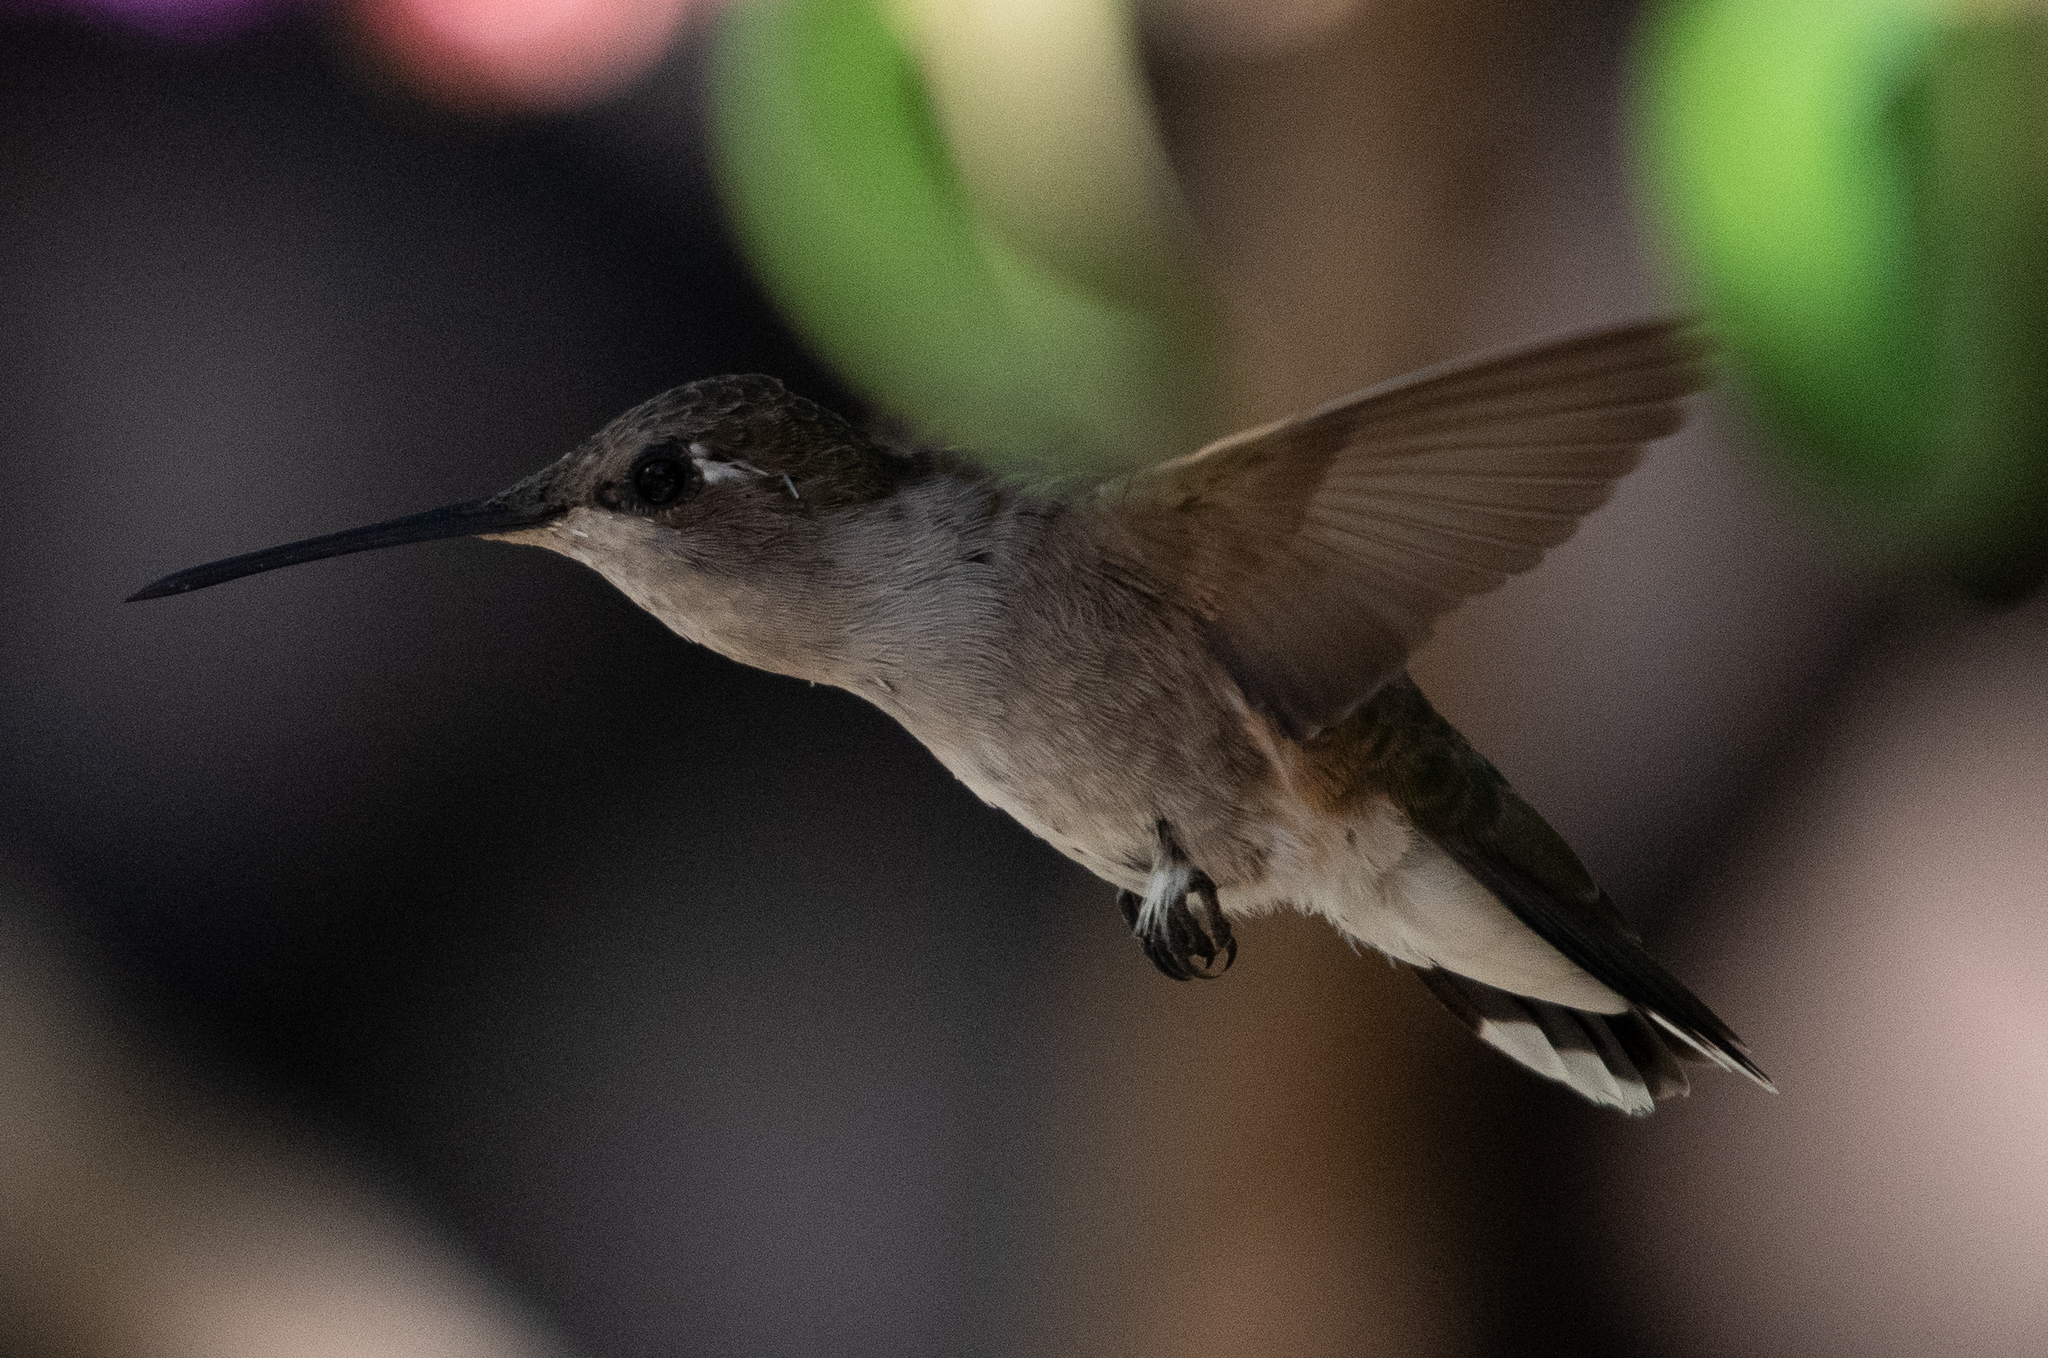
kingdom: Animalia
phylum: Chordata
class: Aves
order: Apodiformes
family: Trochilidae
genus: Calypte
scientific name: Calypte anna
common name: Anna's hummingbird
